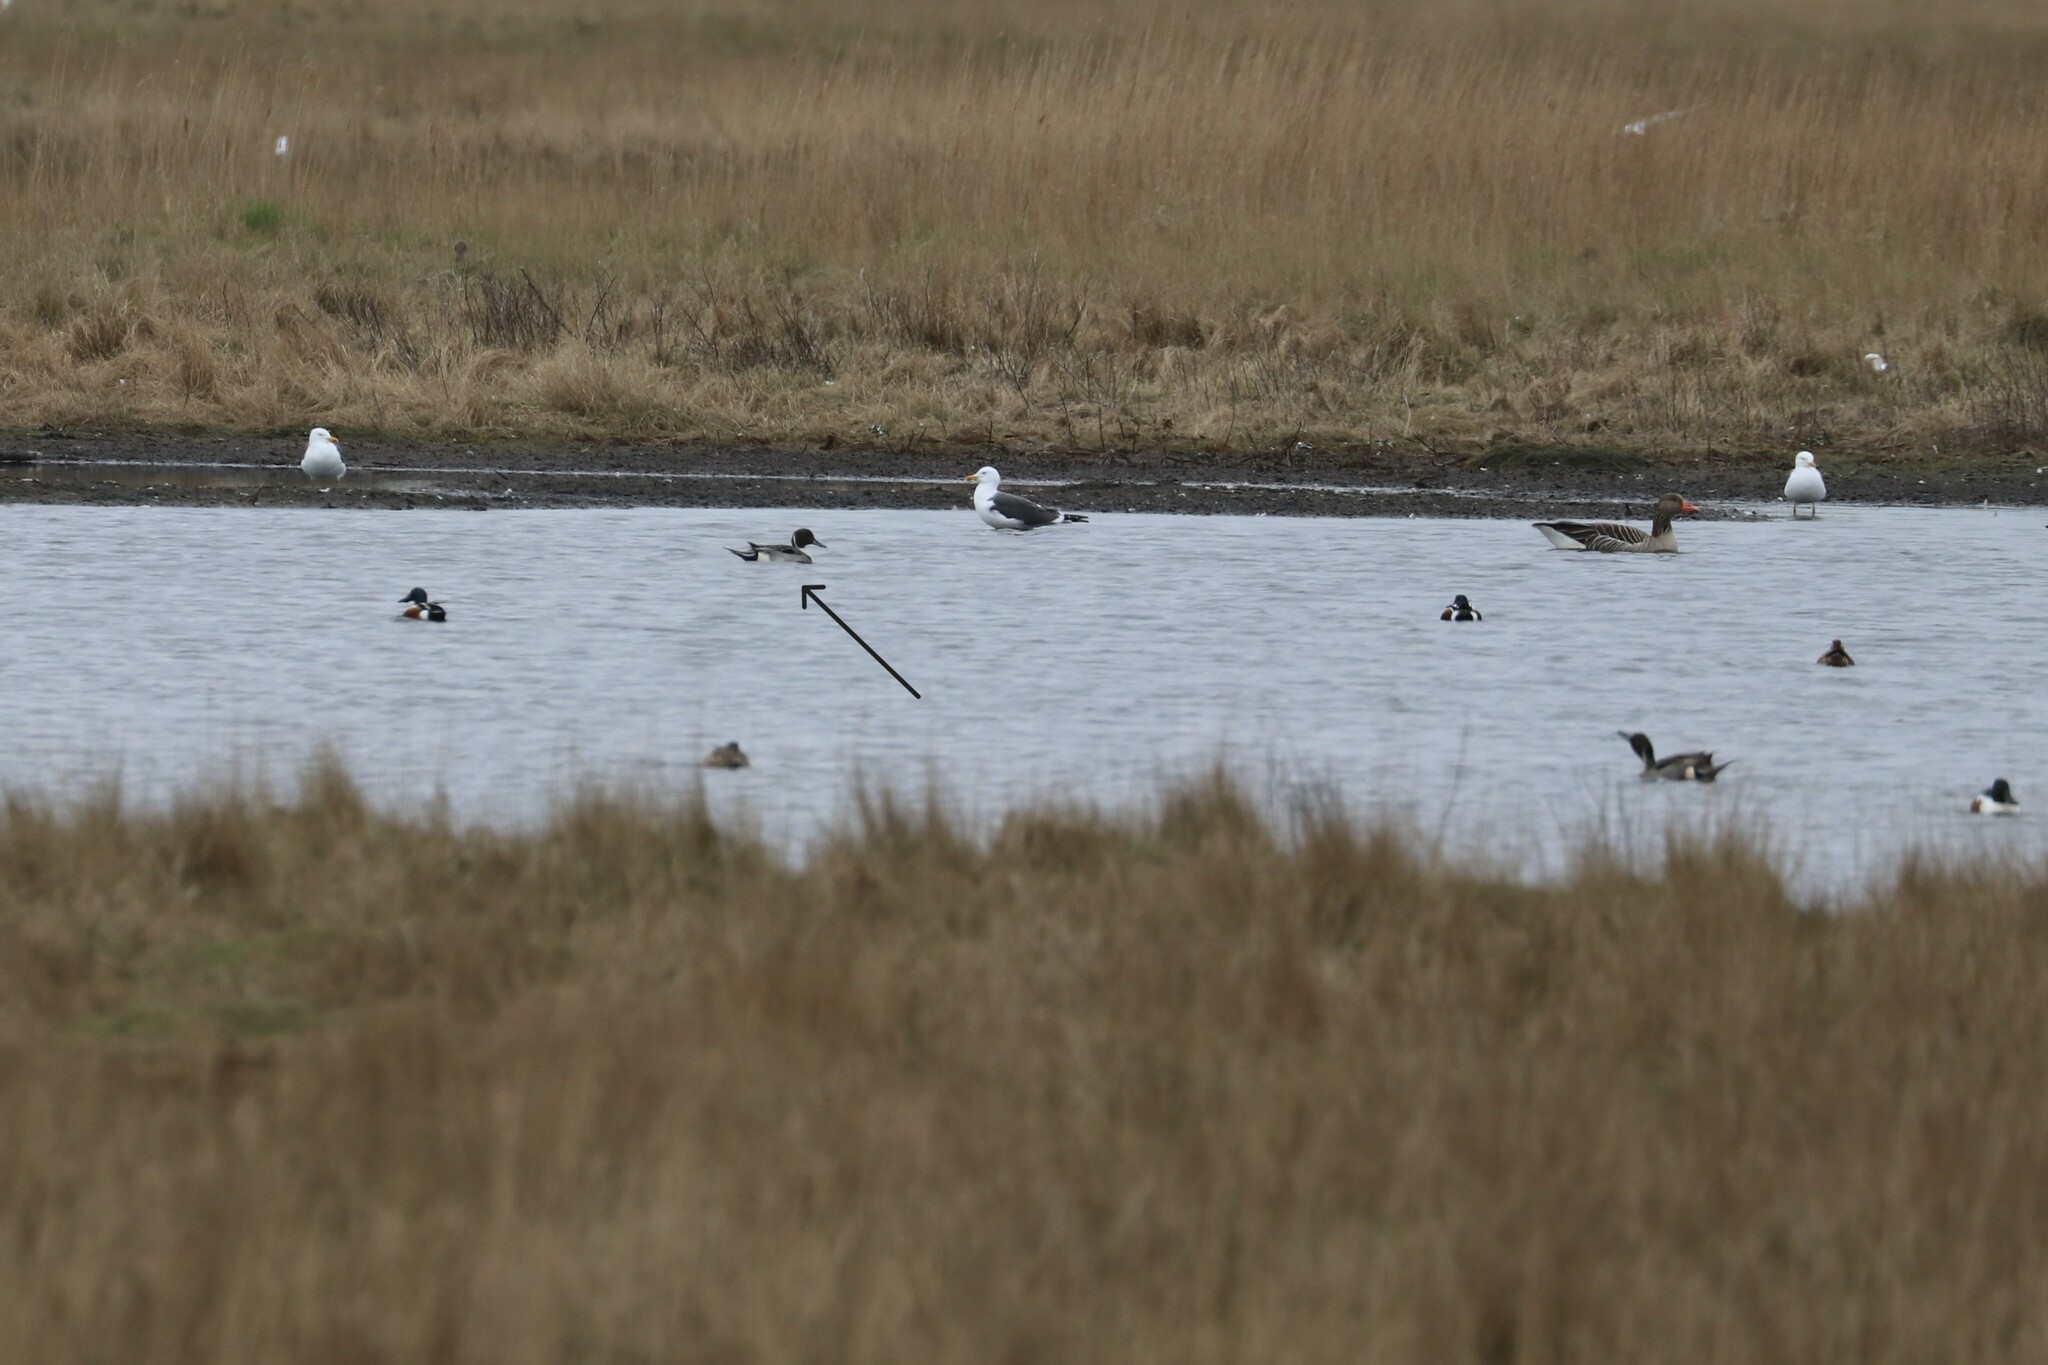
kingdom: Animalia
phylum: Chordata
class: Aves
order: Anseriformes
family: Anatidae
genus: Anas
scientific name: Anas acuta
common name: Northern pintail
